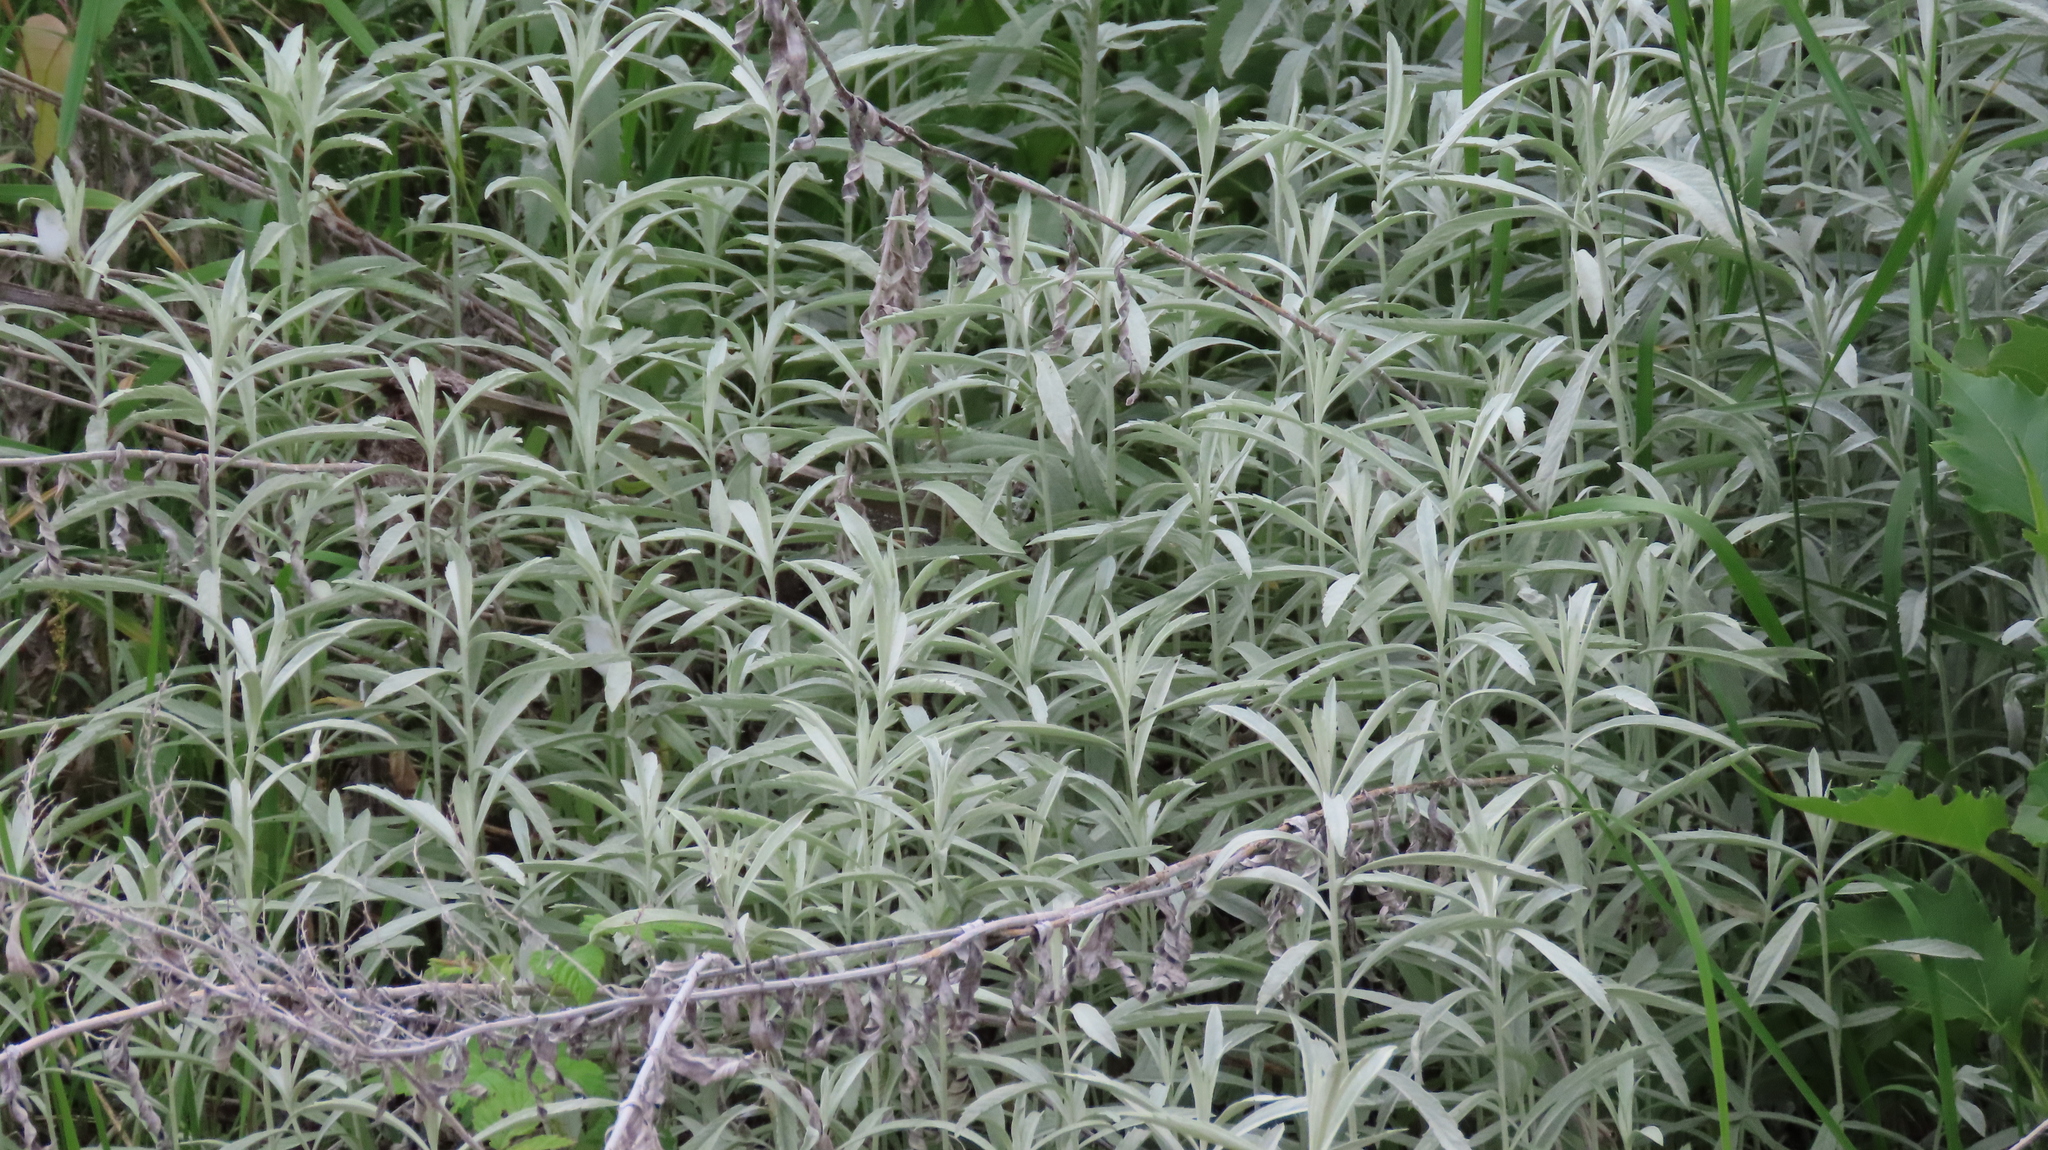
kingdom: Plantae
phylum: Tracheophyta
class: Magnoliopsida
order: Asterales
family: Asteraceae
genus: Artemisia
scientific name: Artemisia ludoviciana
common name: Western mugwort
